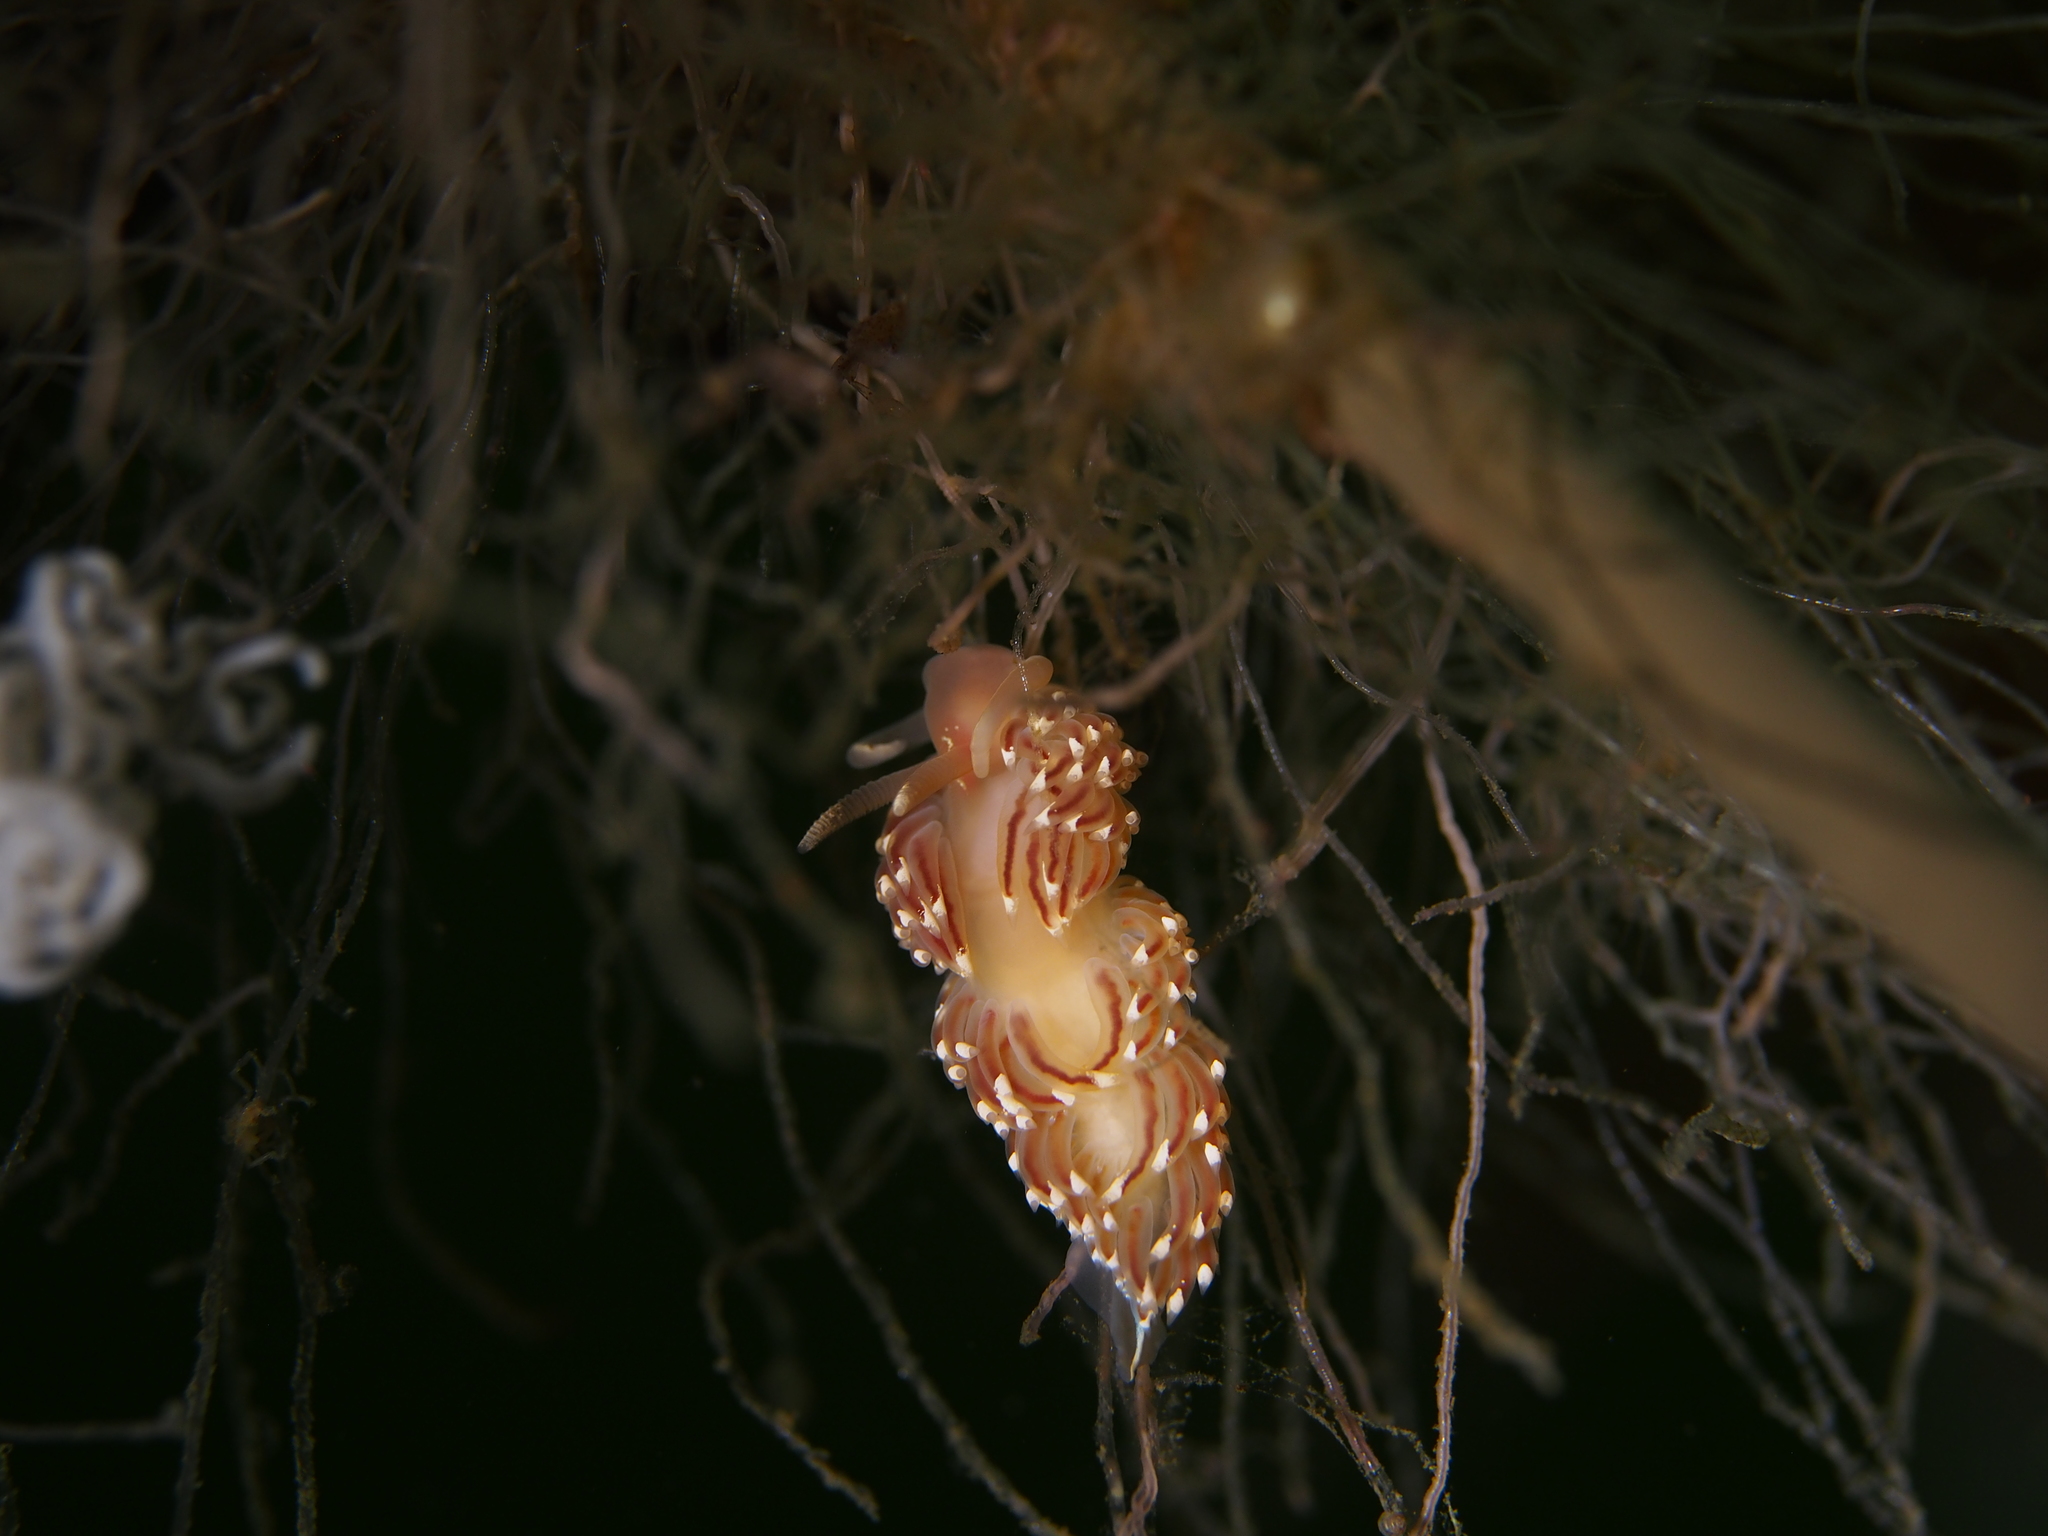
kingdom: Animalia
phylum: Mollusca
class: Gastropoda
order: Nudibranchia
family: Facelinidae
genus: Facelina
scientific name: Facelina bostoniensis
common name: Boston facelina
